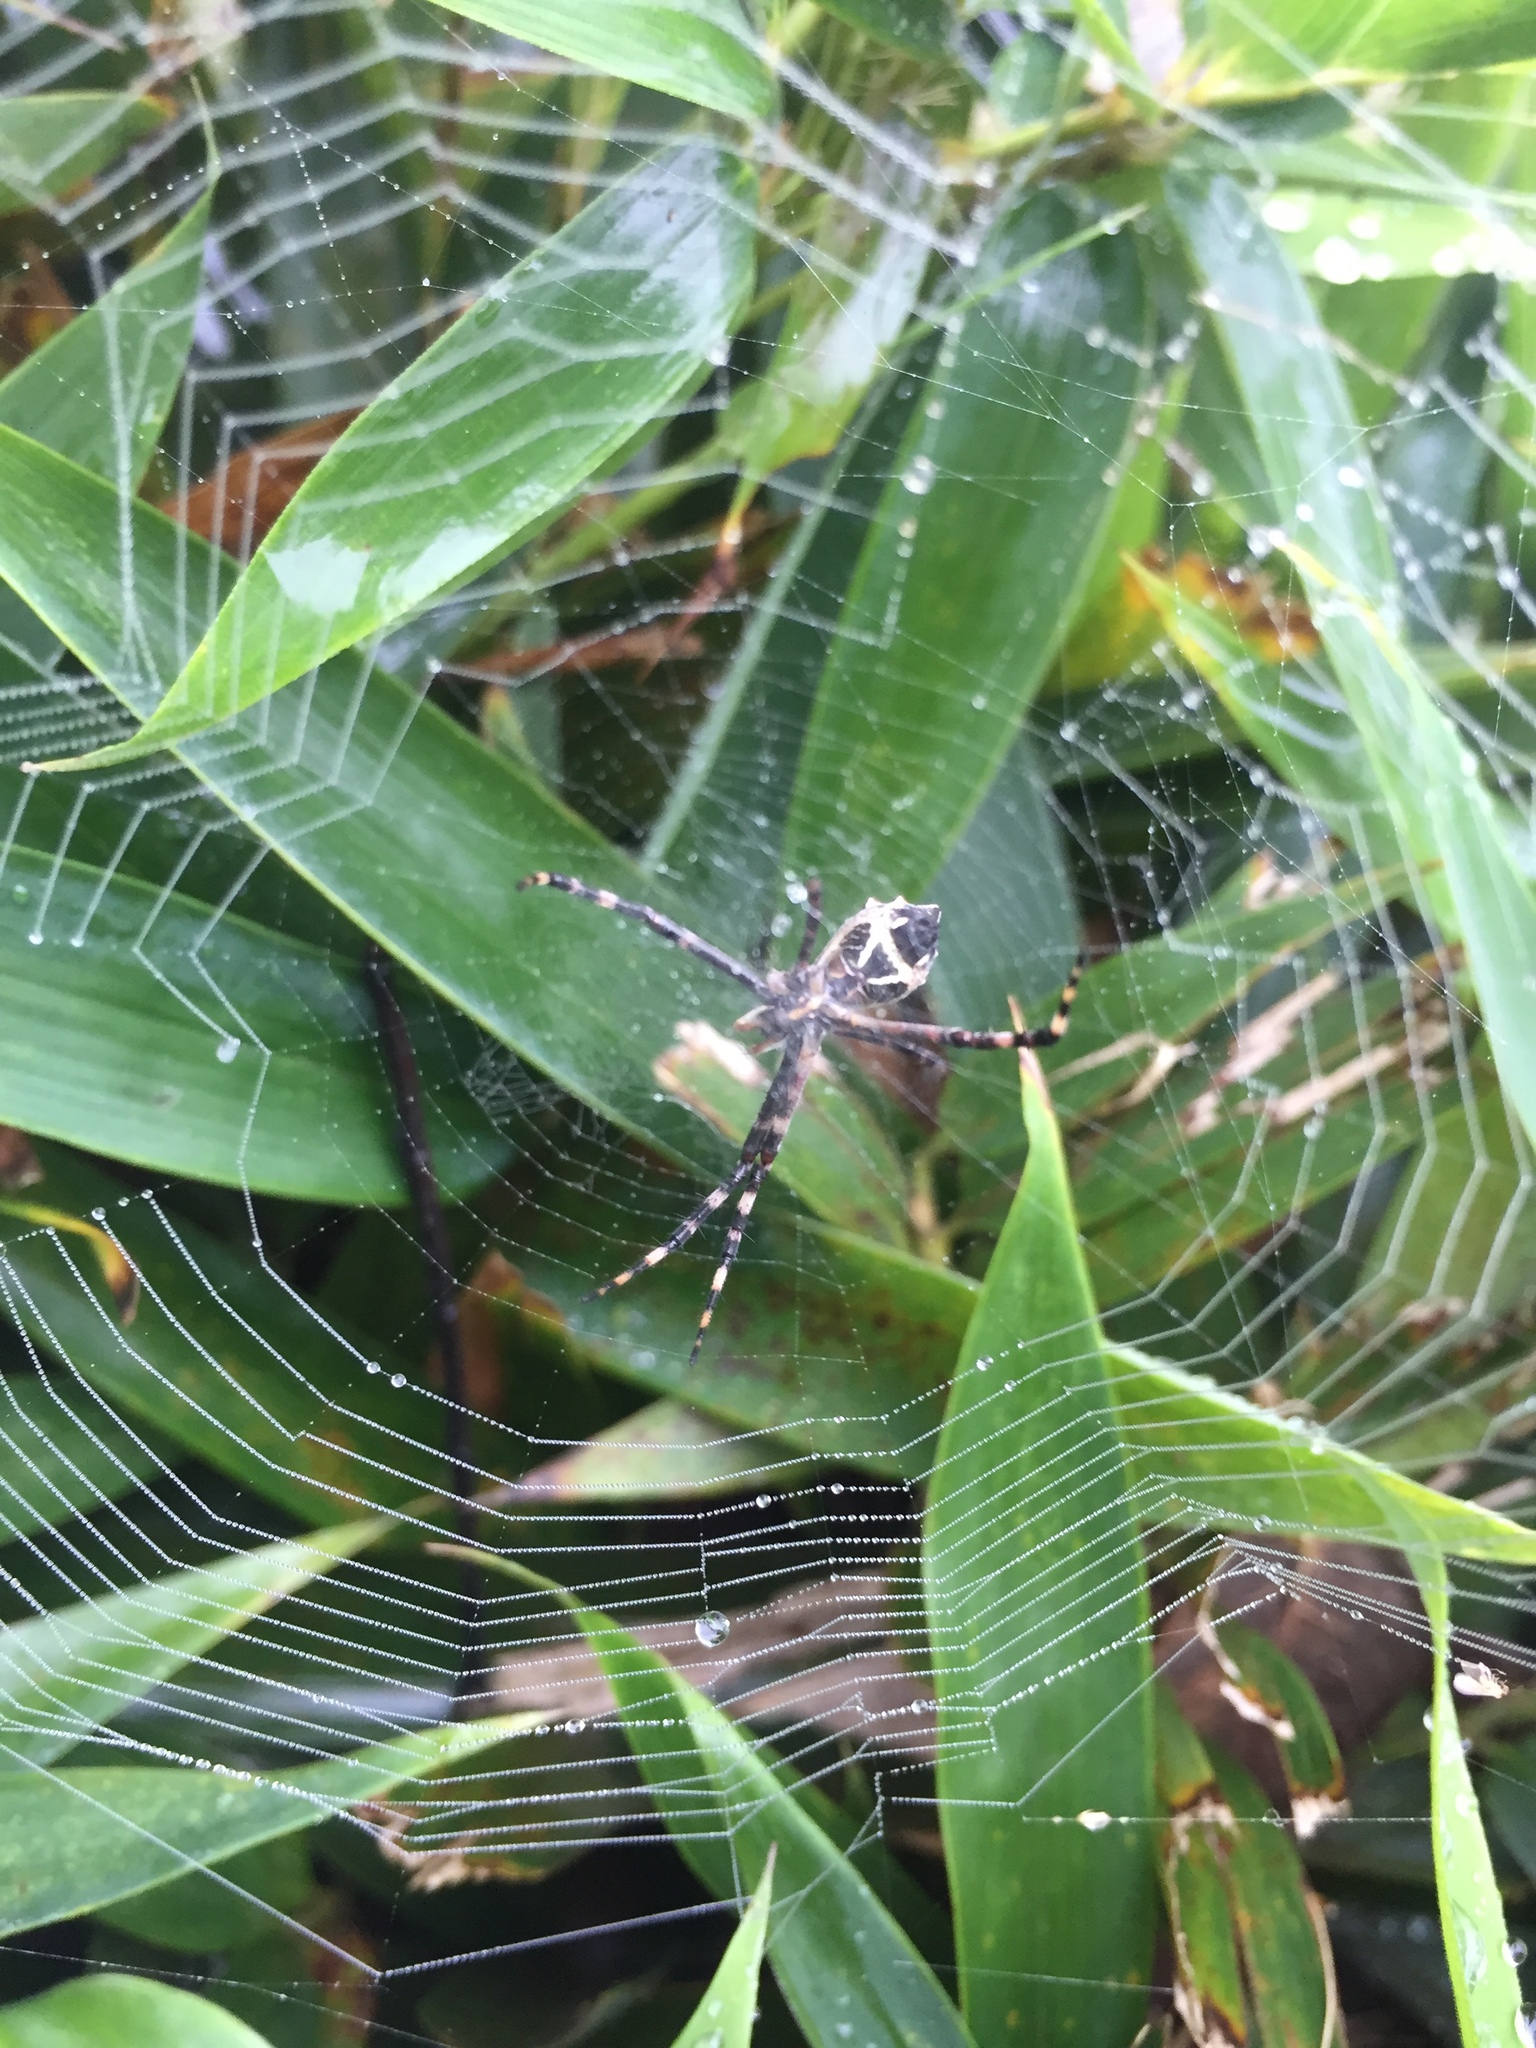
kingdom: Animalia
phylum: Arthropoda
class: Arachnida
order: Araneae
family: Araneidae
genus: Argiope
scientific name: Argiope argentata
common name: Orb weavers
